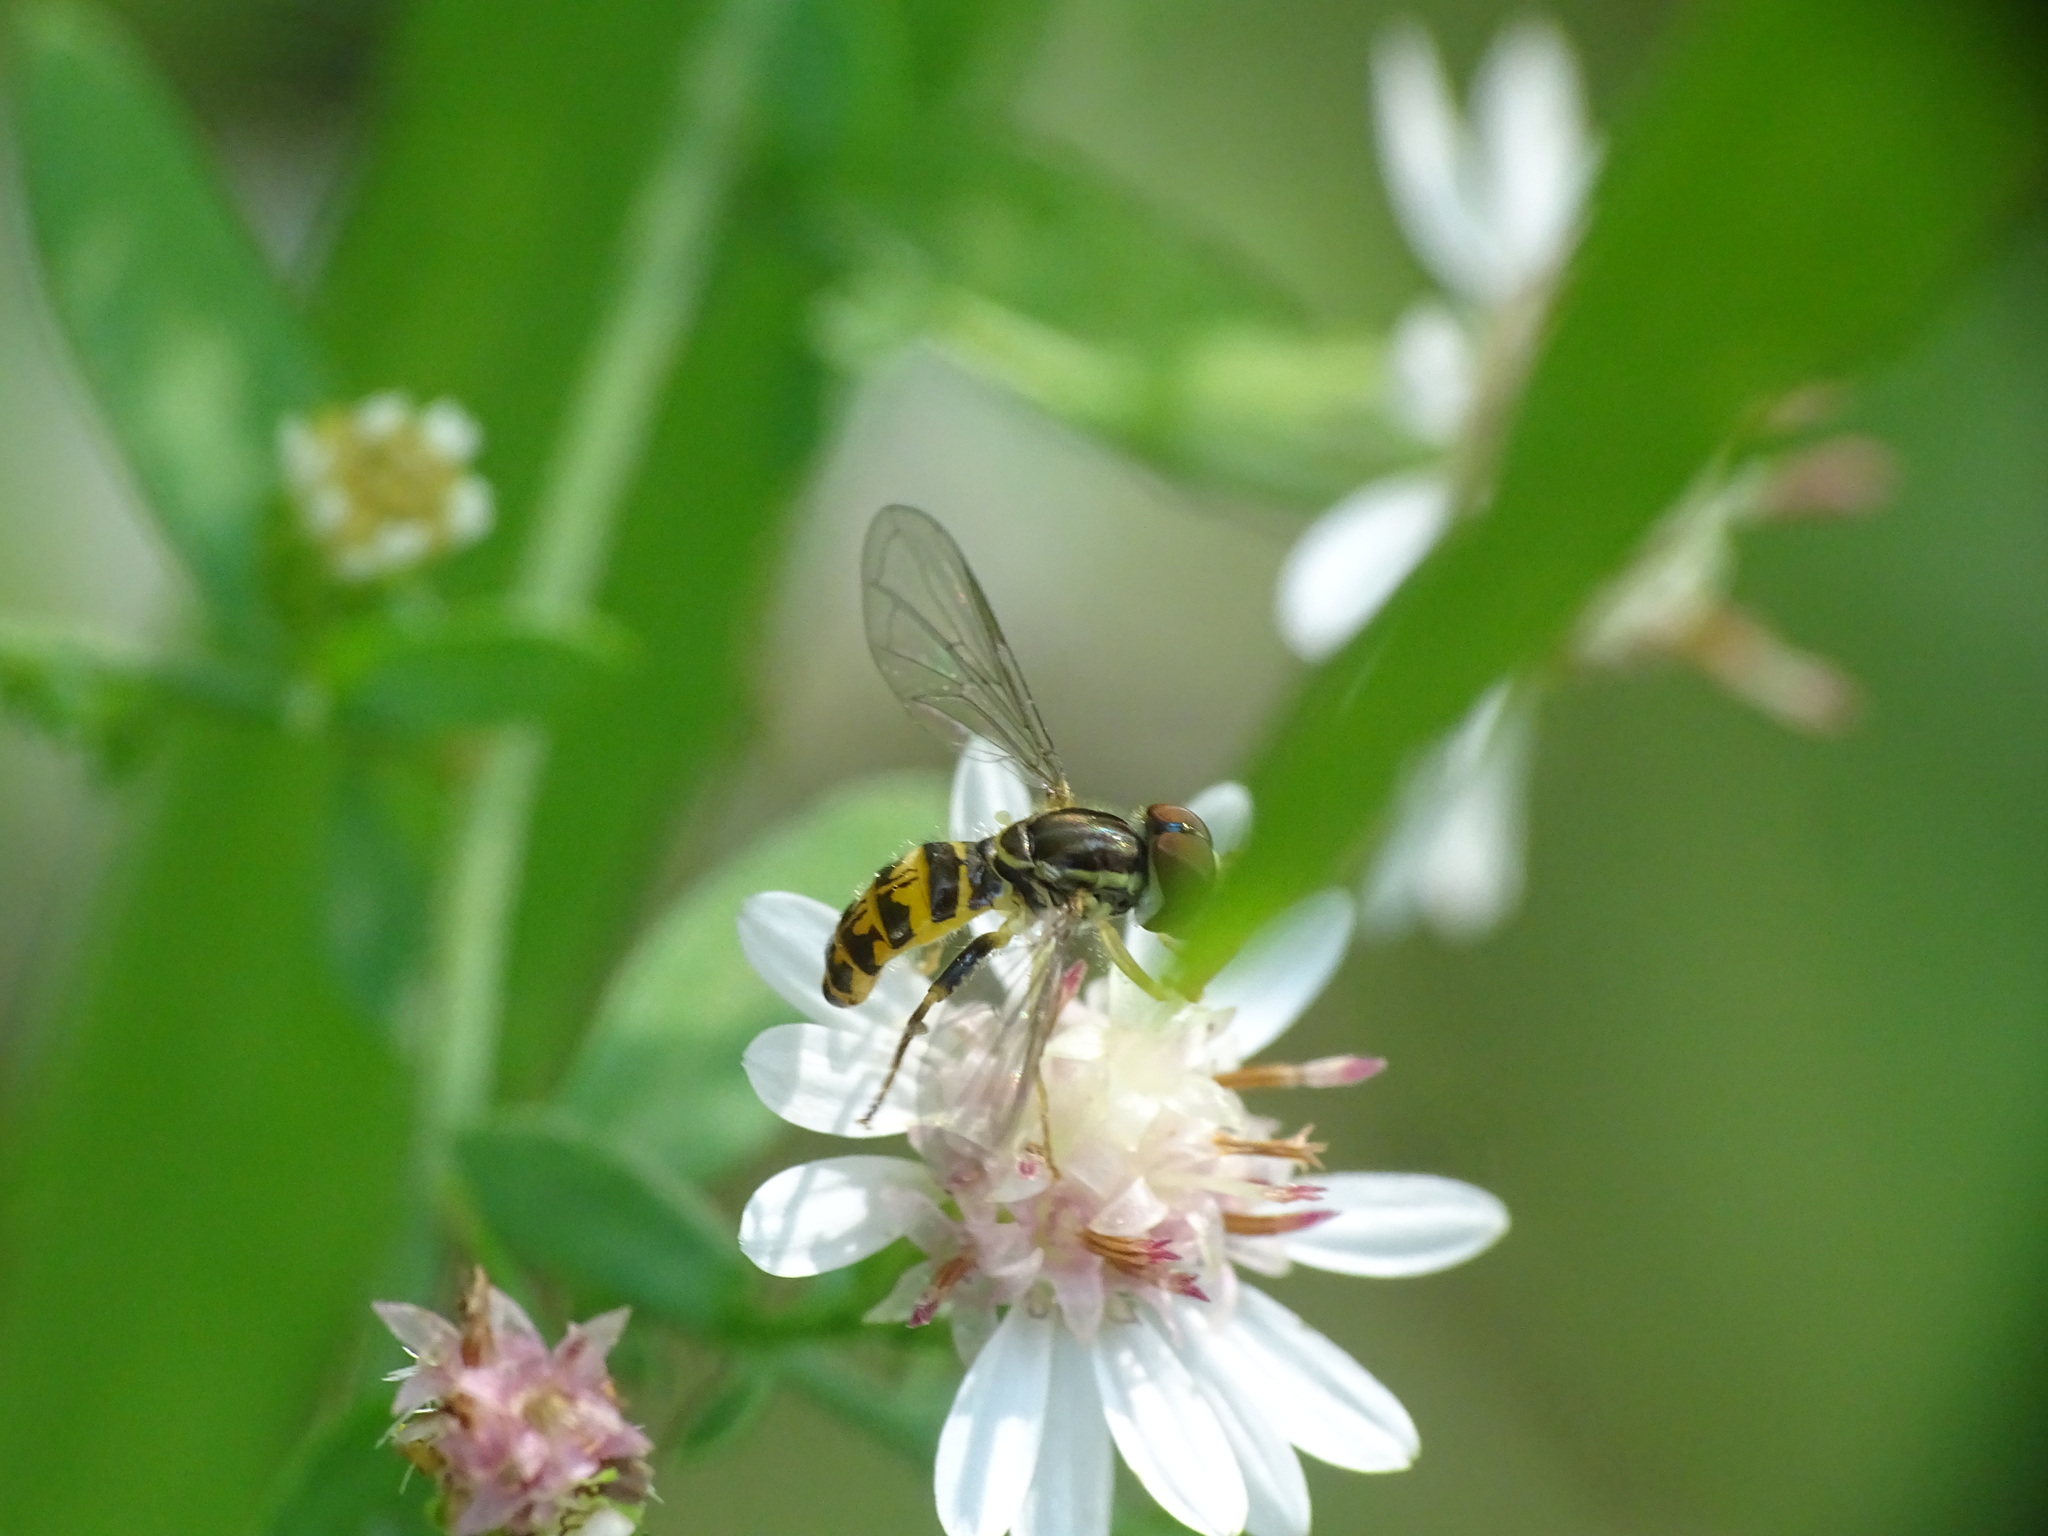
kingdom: Animalia
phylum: Arthropoda
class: Insecta
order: Diptera
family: Syrphidae
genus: Toxomerus
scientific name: Toxomerus geminatus
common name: Eastern calligrapher
